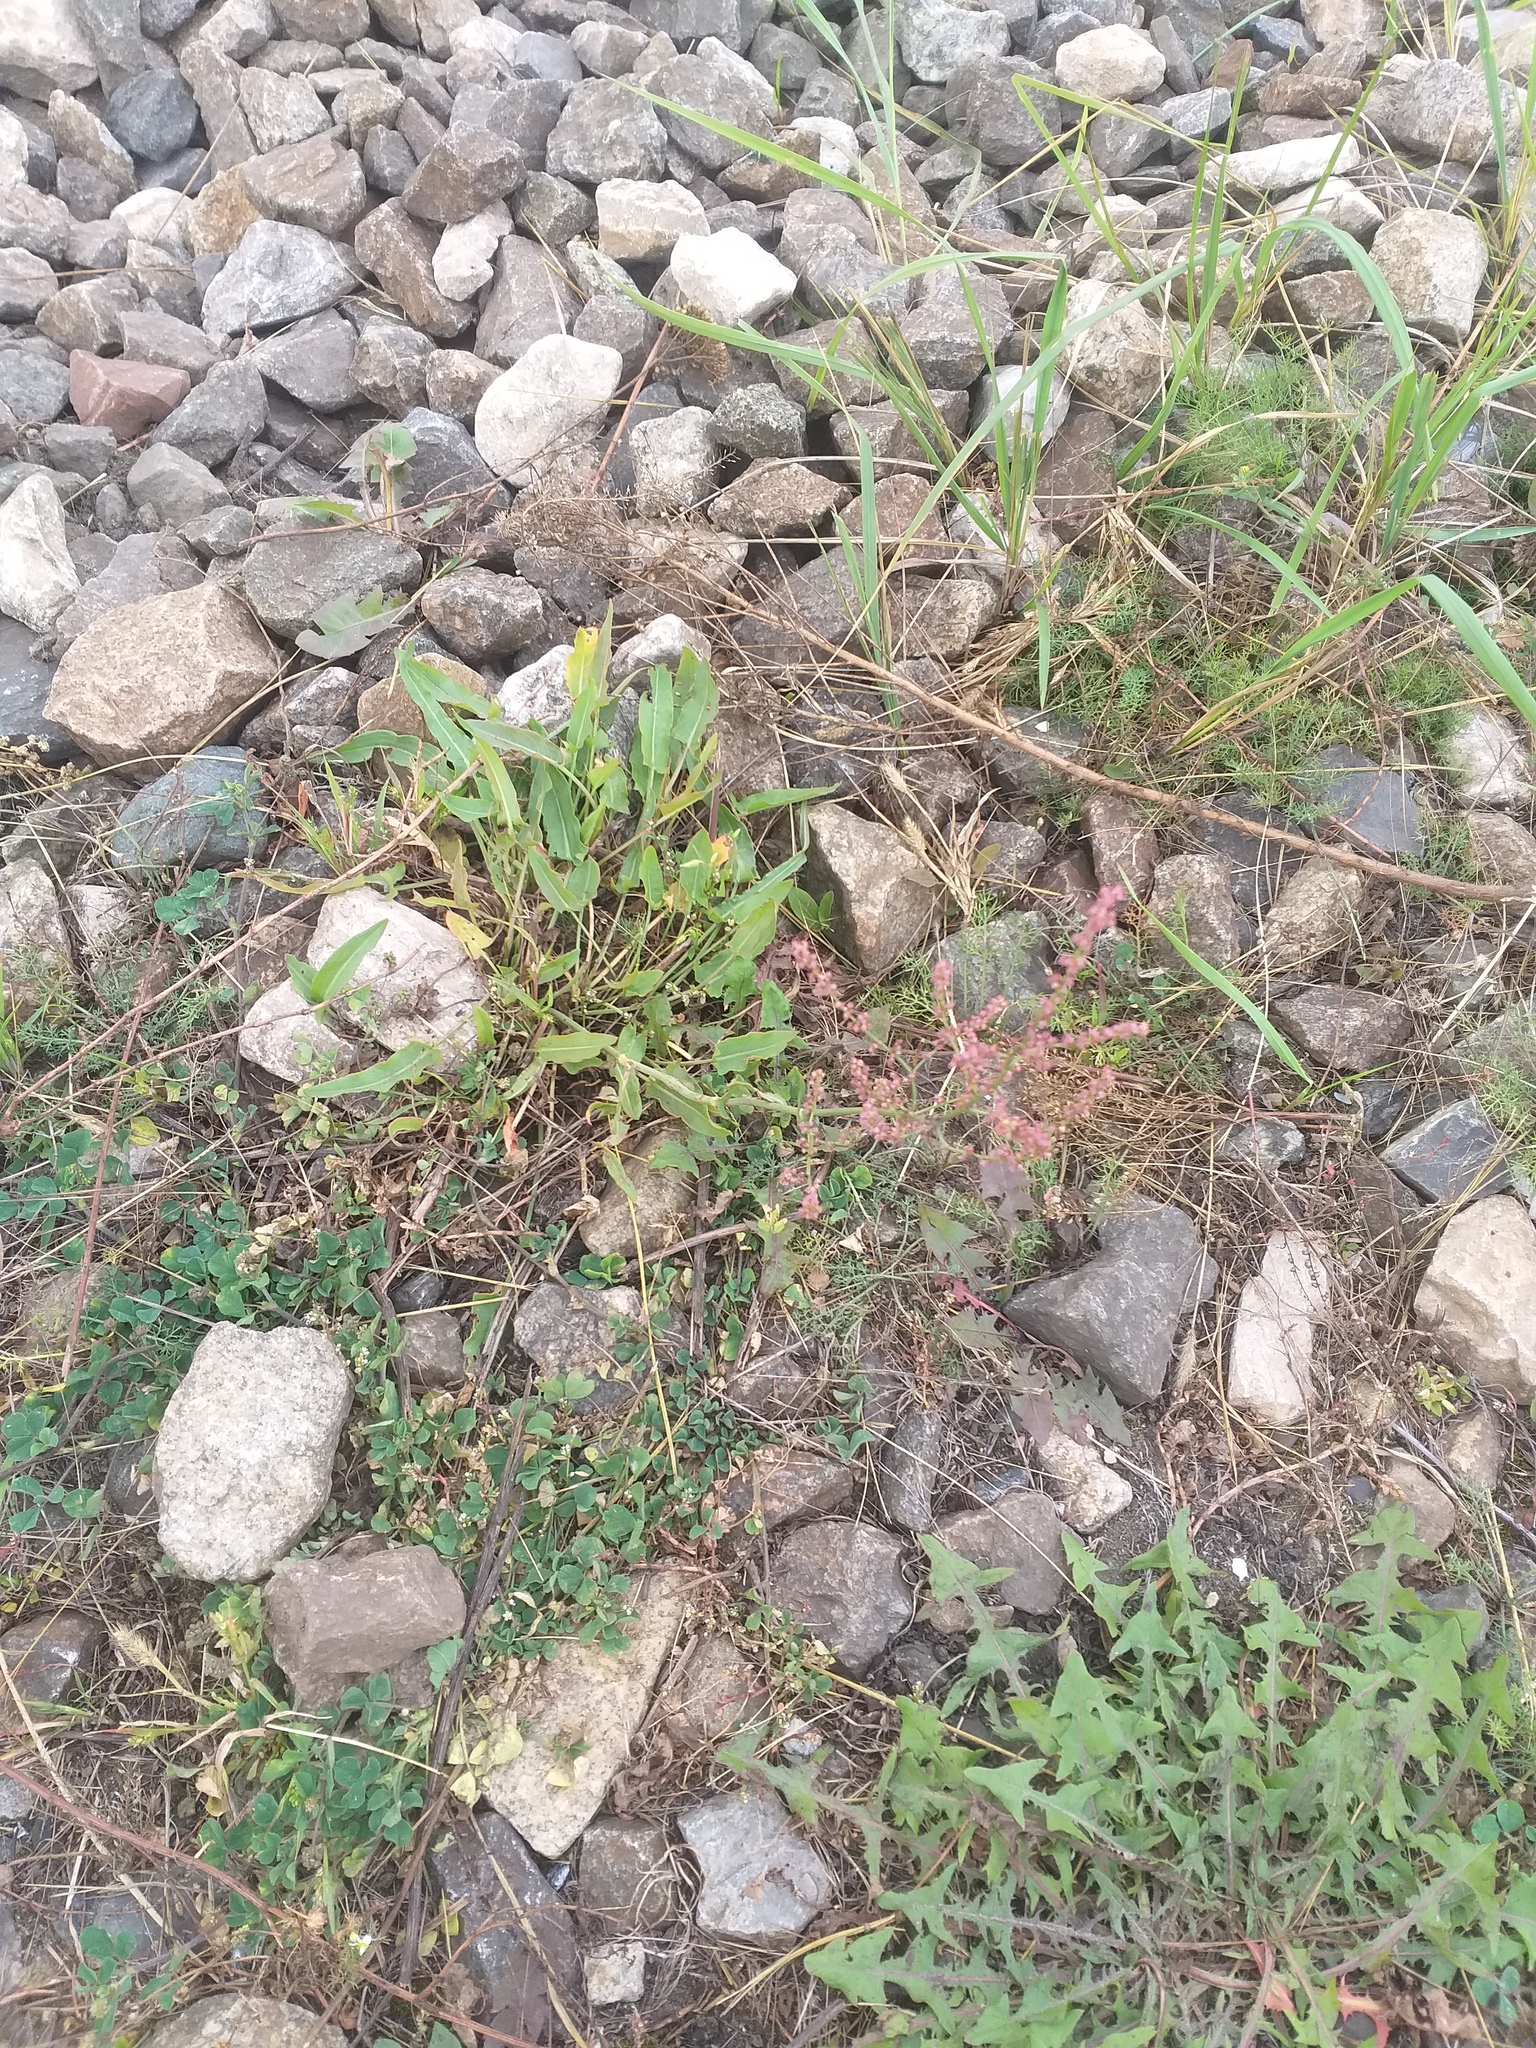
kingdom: Plantae
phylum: Tracheophyta
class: Magnoliopsida
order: Caryophyllales
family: Polygonaceae
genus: Rumex
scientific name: Rumex thyrsiflorus
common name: Garden sorrel
